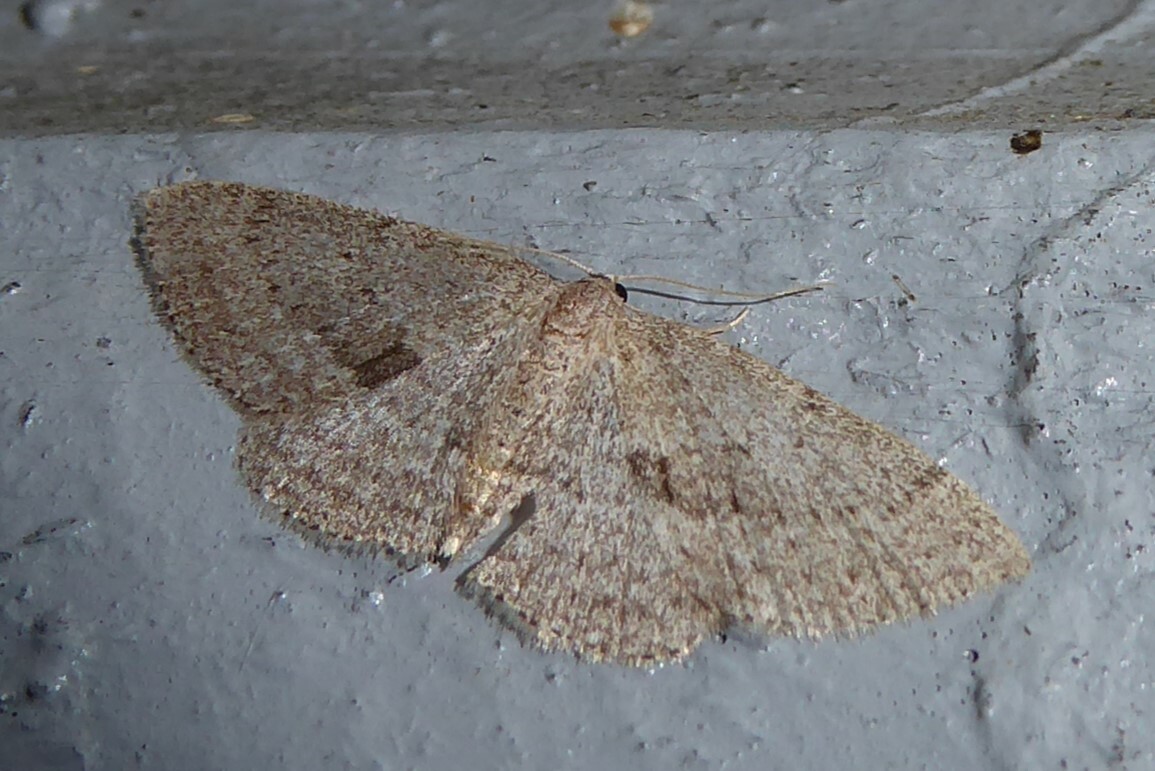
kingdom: Animalia
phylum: Arthropoda
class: Insecta
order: Lepidoptera
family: Geometridae
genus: Poecilasthena
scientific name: Poecilasthena schistaria
